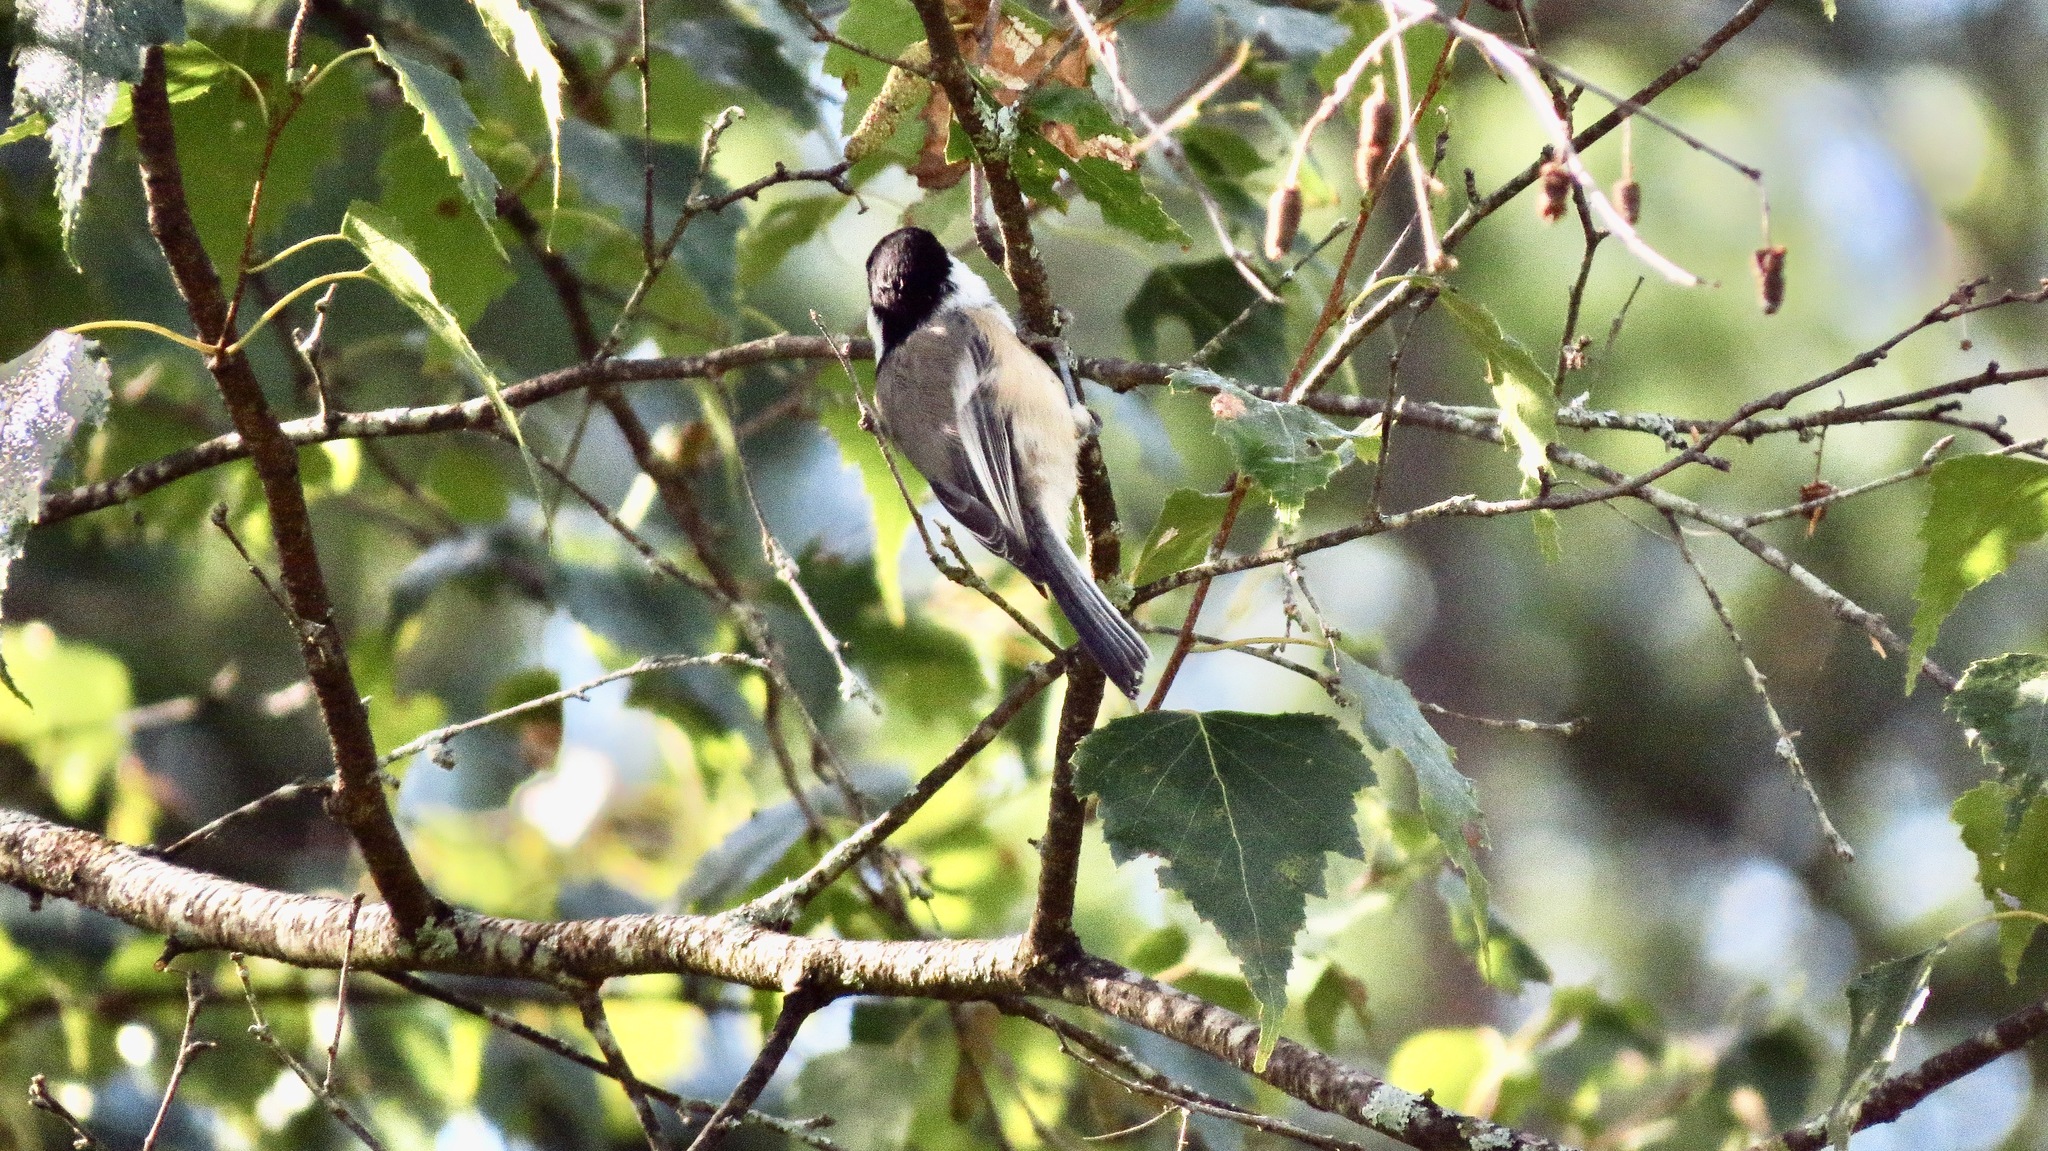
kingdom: Animalia
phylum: Chordata
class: Aves
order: Passeriformes
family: Paridae
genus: Poecile
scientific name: Poecile atricapillus
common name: Black-capped chickadee
